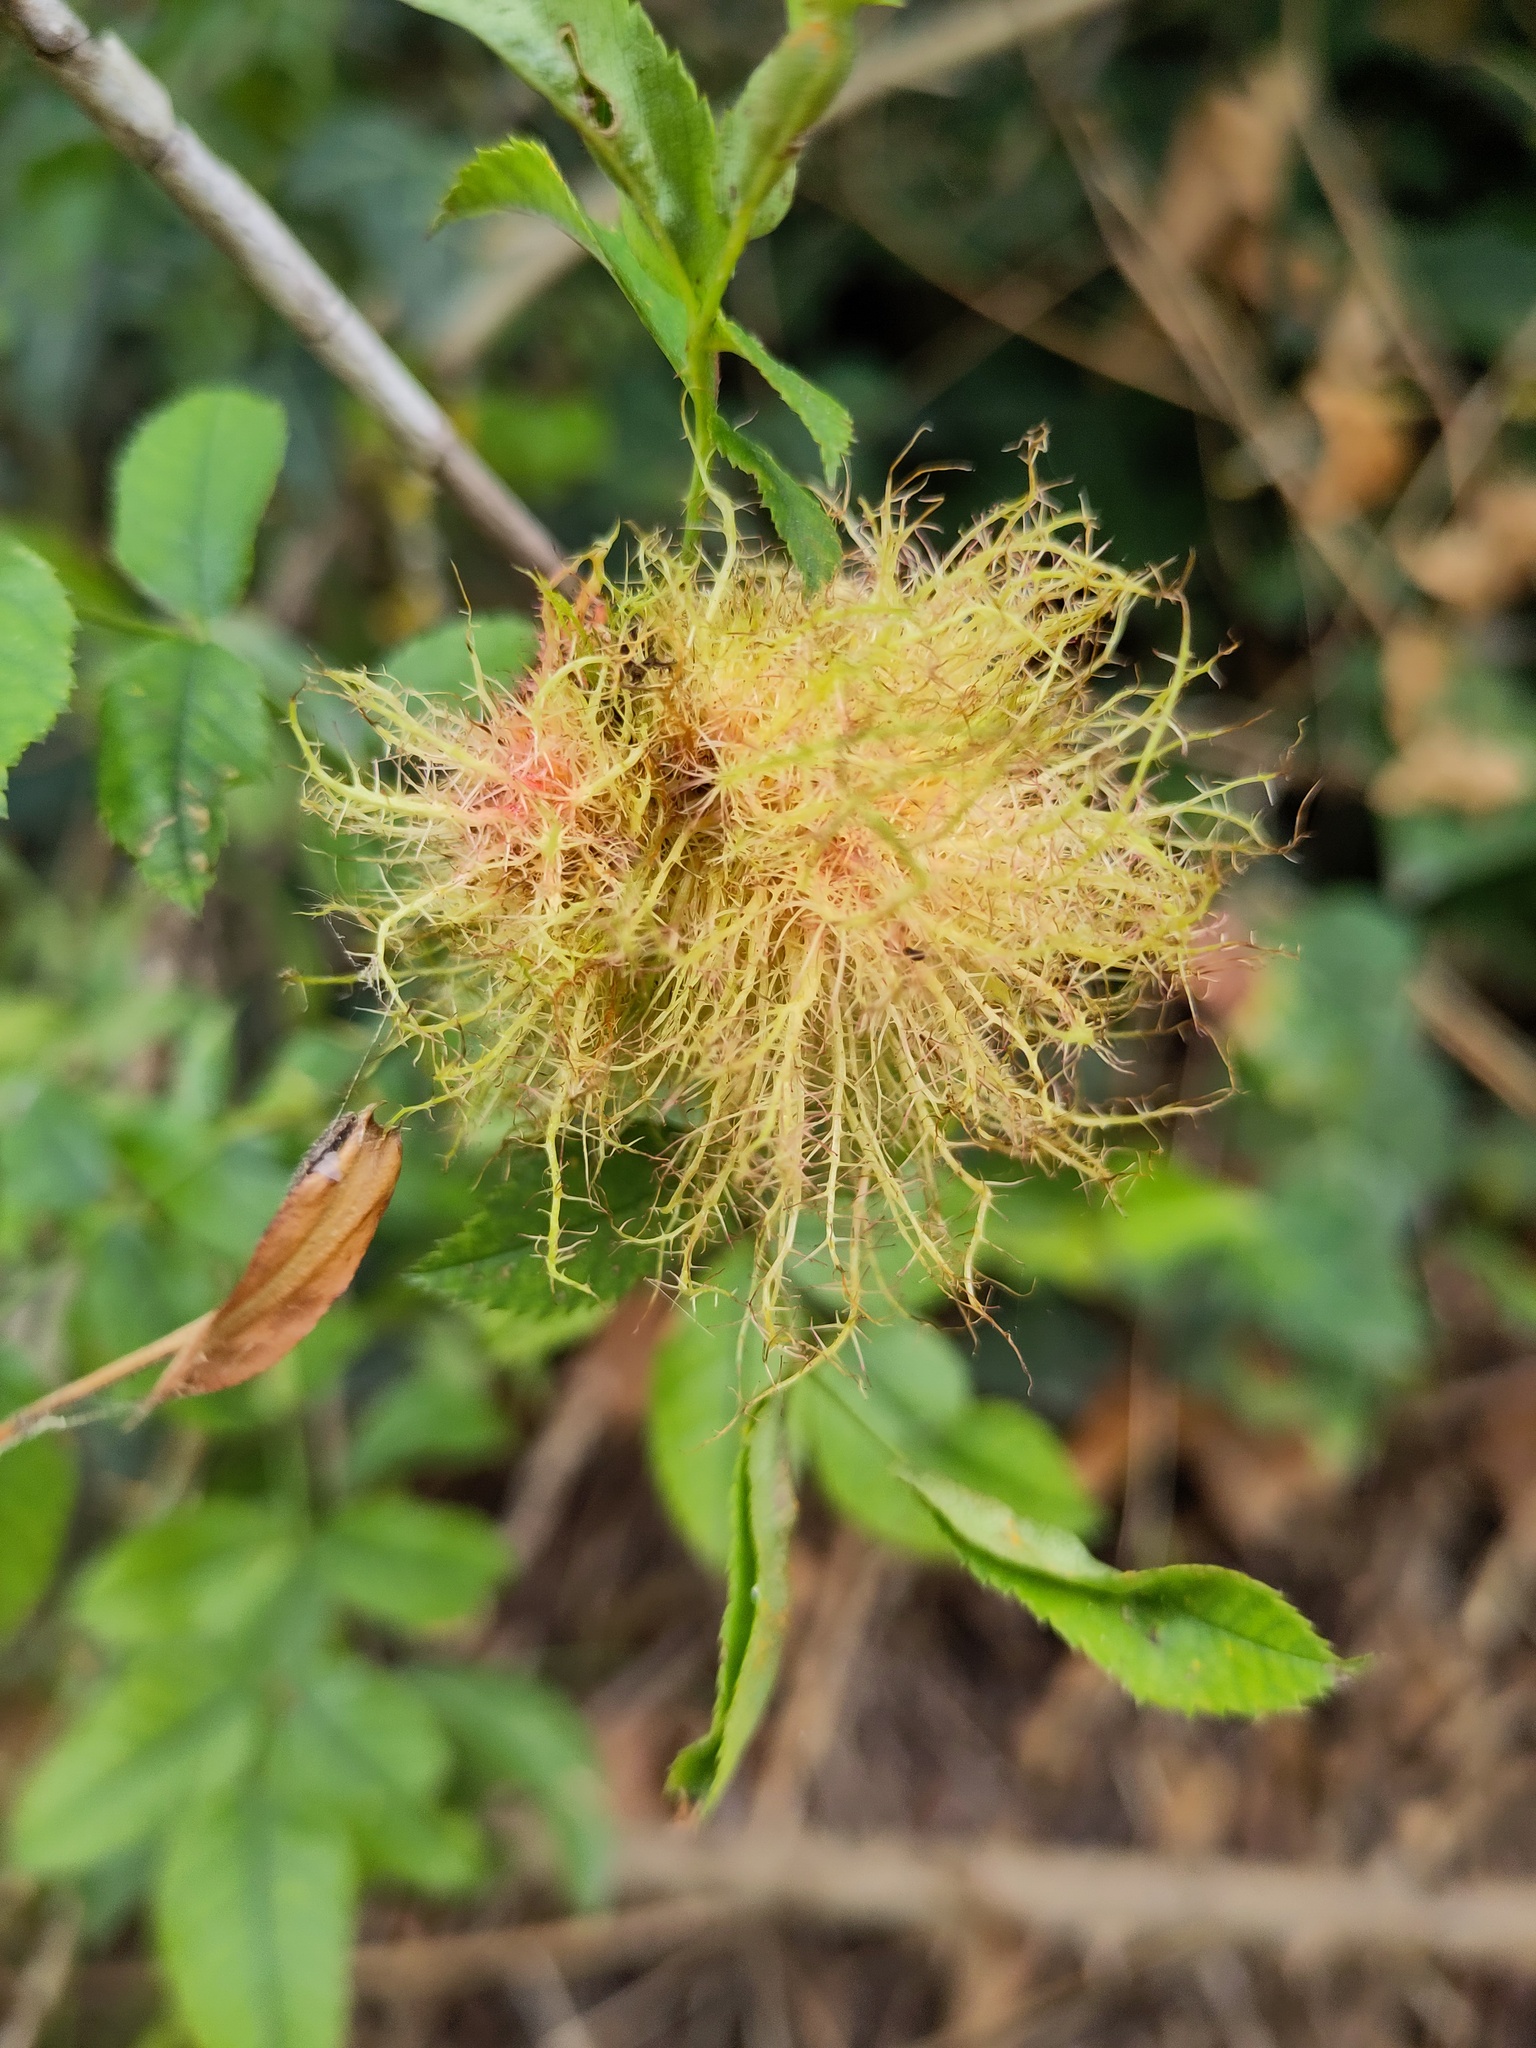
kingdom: Animalia
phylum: Arthropoda
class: Insecta
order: Hymenoptera
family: Cynipidae
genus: Diplolepis
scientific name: Diplolepis rosae
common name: Bedeguar gall
